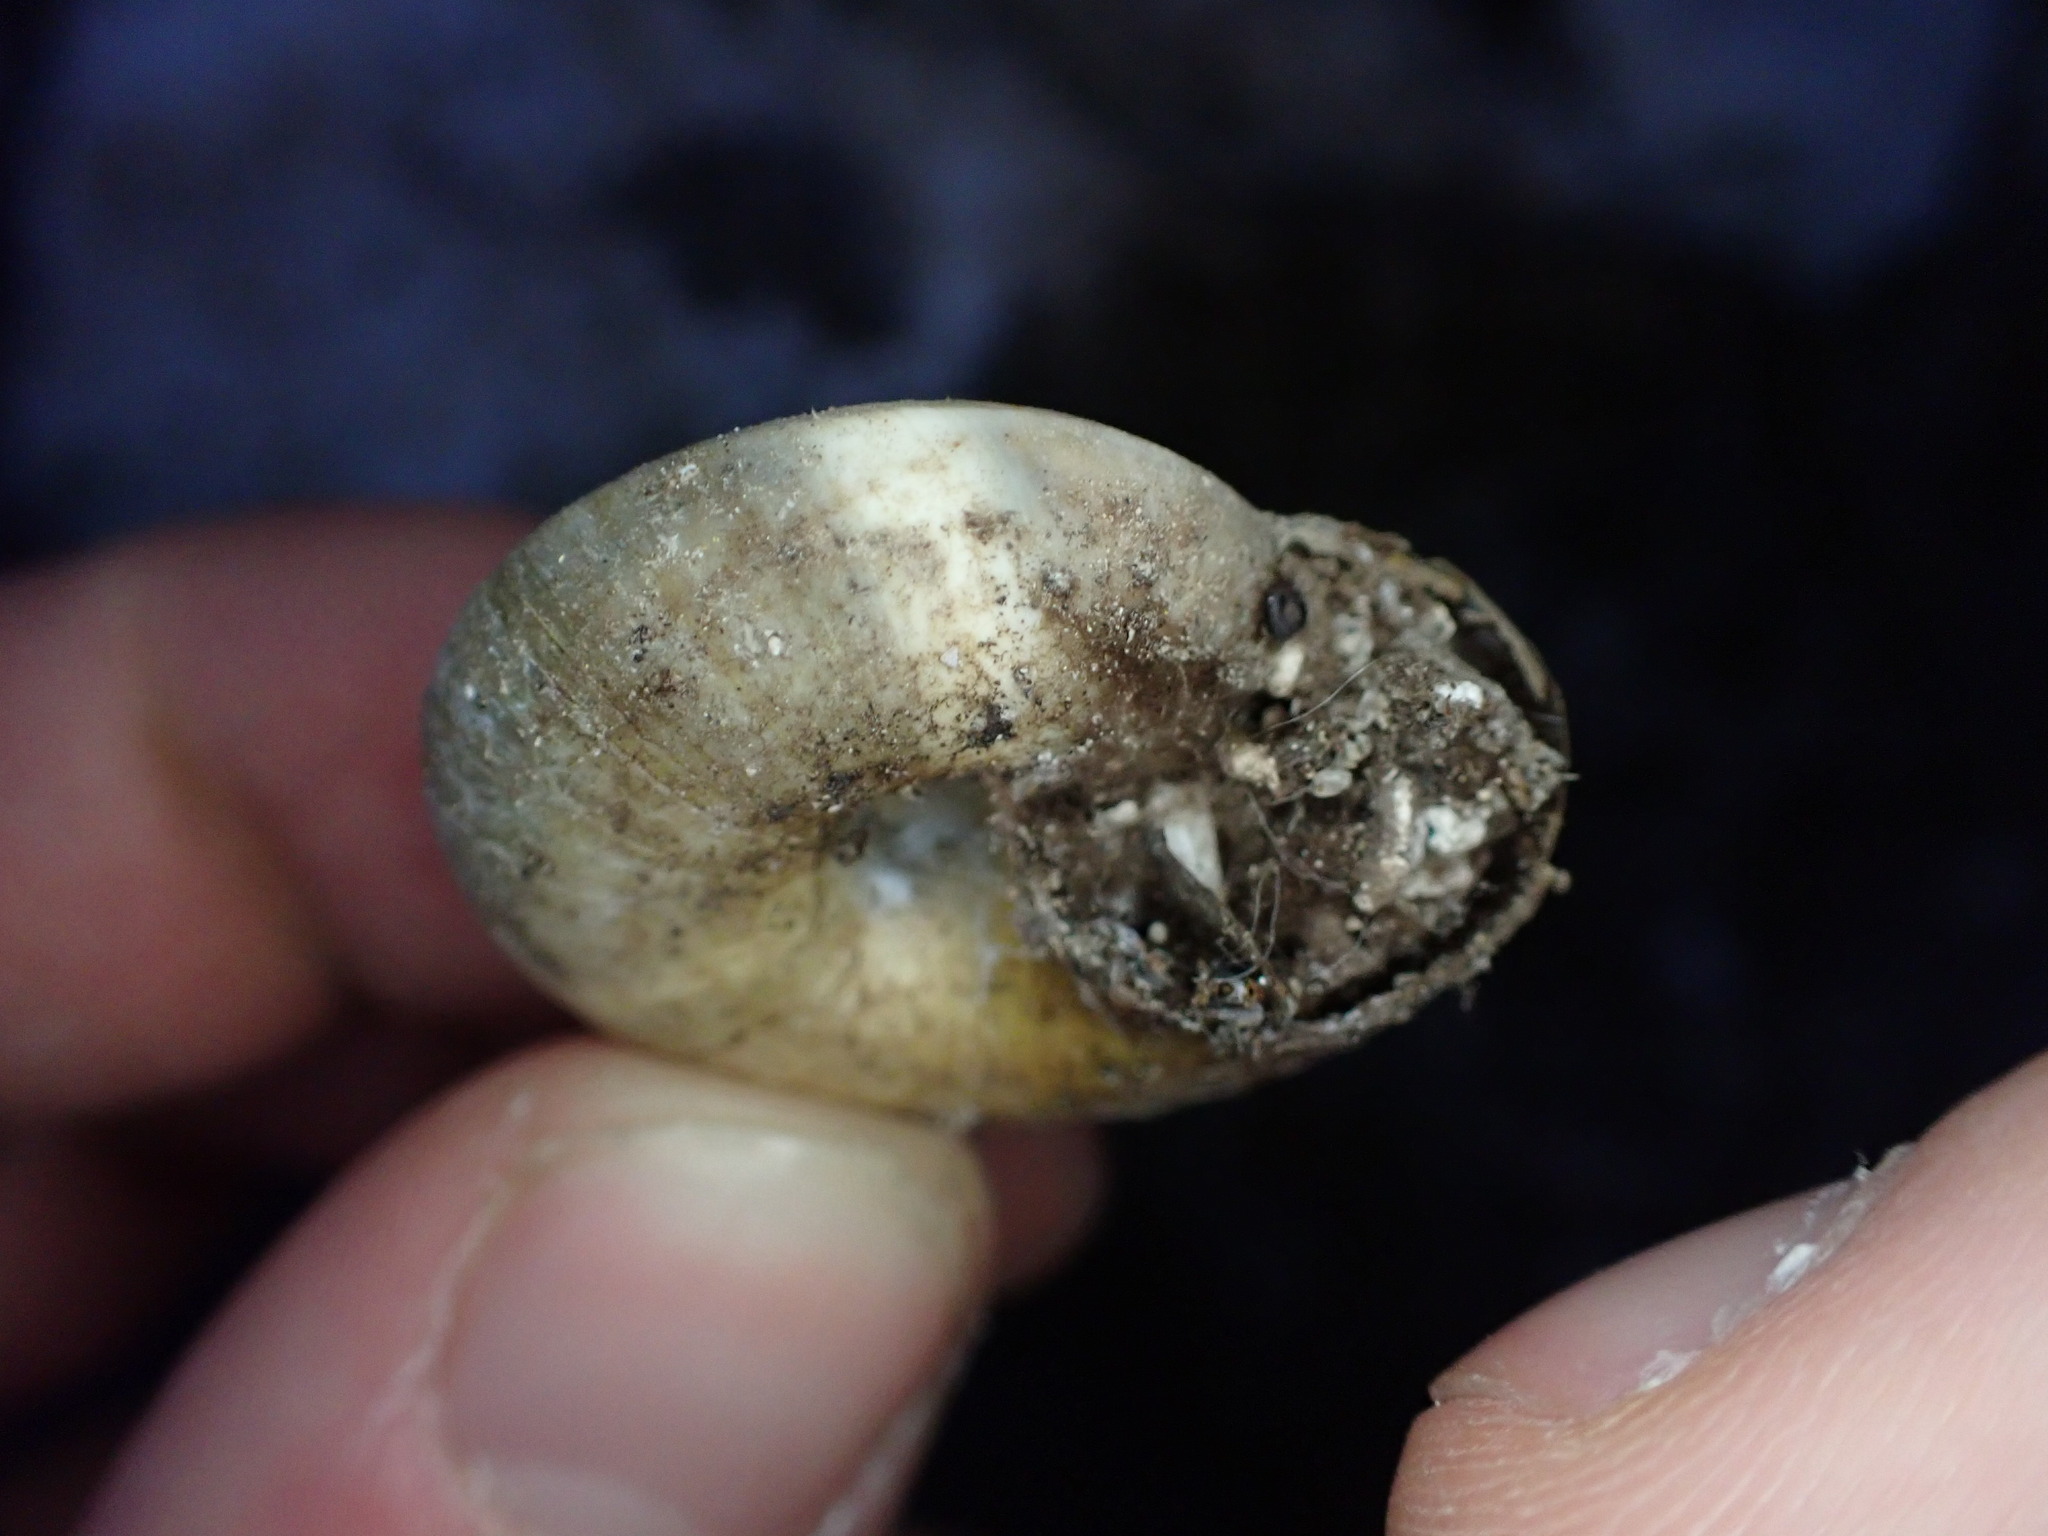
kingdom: Animalia
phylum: Mollusca
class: Gastropoda
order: Stylommatophora
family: Zonitidae
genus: Zonites
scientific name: Zonites algirus
